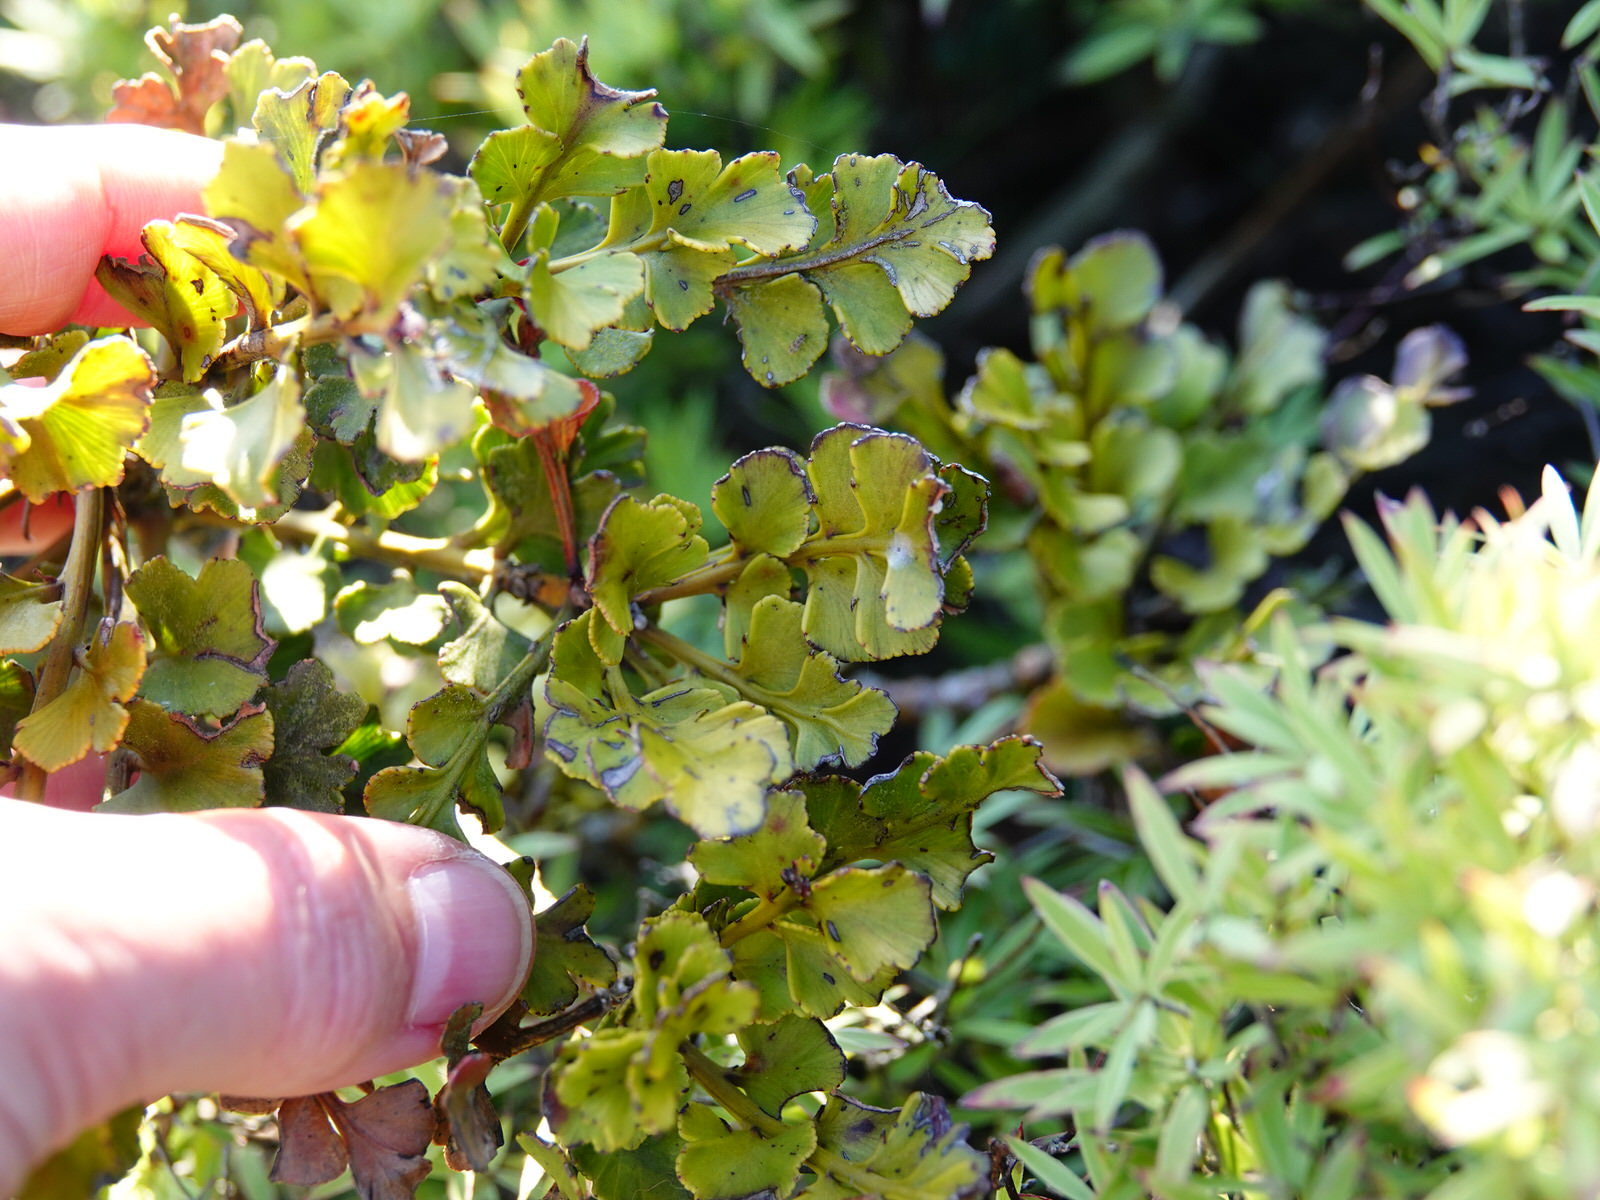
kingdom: Plantae
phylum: Tracheophyta
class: Pinopsida
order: Pinales
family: Phyllocladaceae
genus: Phyllocladus
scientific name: Phyllocladus trichomanoides
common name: Celery pine
